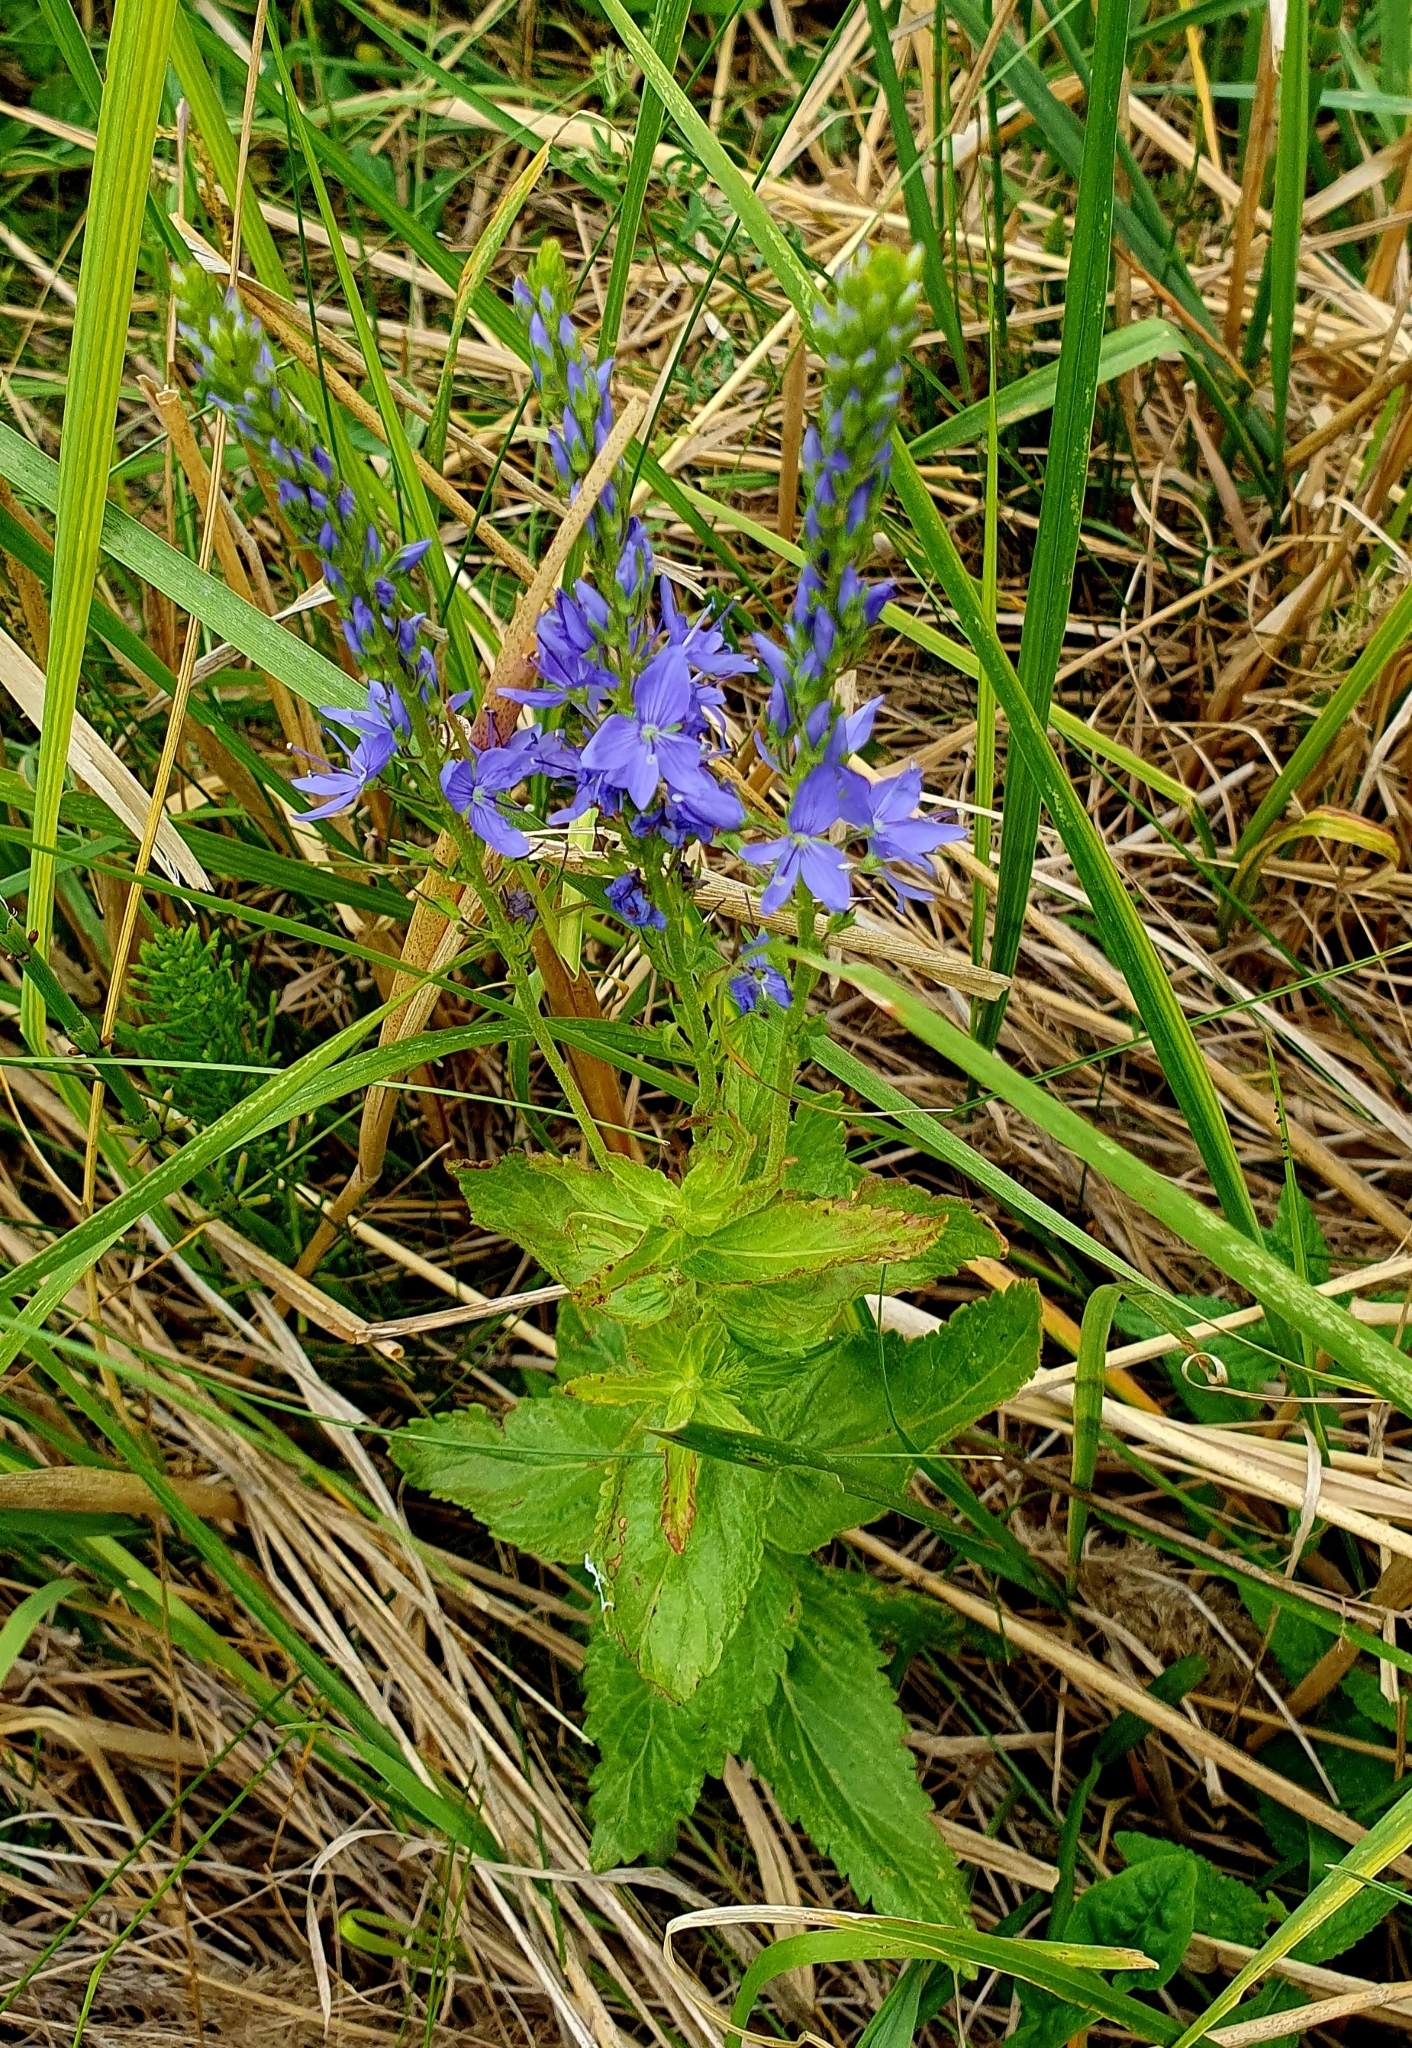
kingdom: Plantae
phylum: Tracheophyta
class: Magnoliopsida
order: Lamiales
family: Plantaginaceae
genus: Veronica
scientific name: Veronica teucrium
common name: Large speedwell
